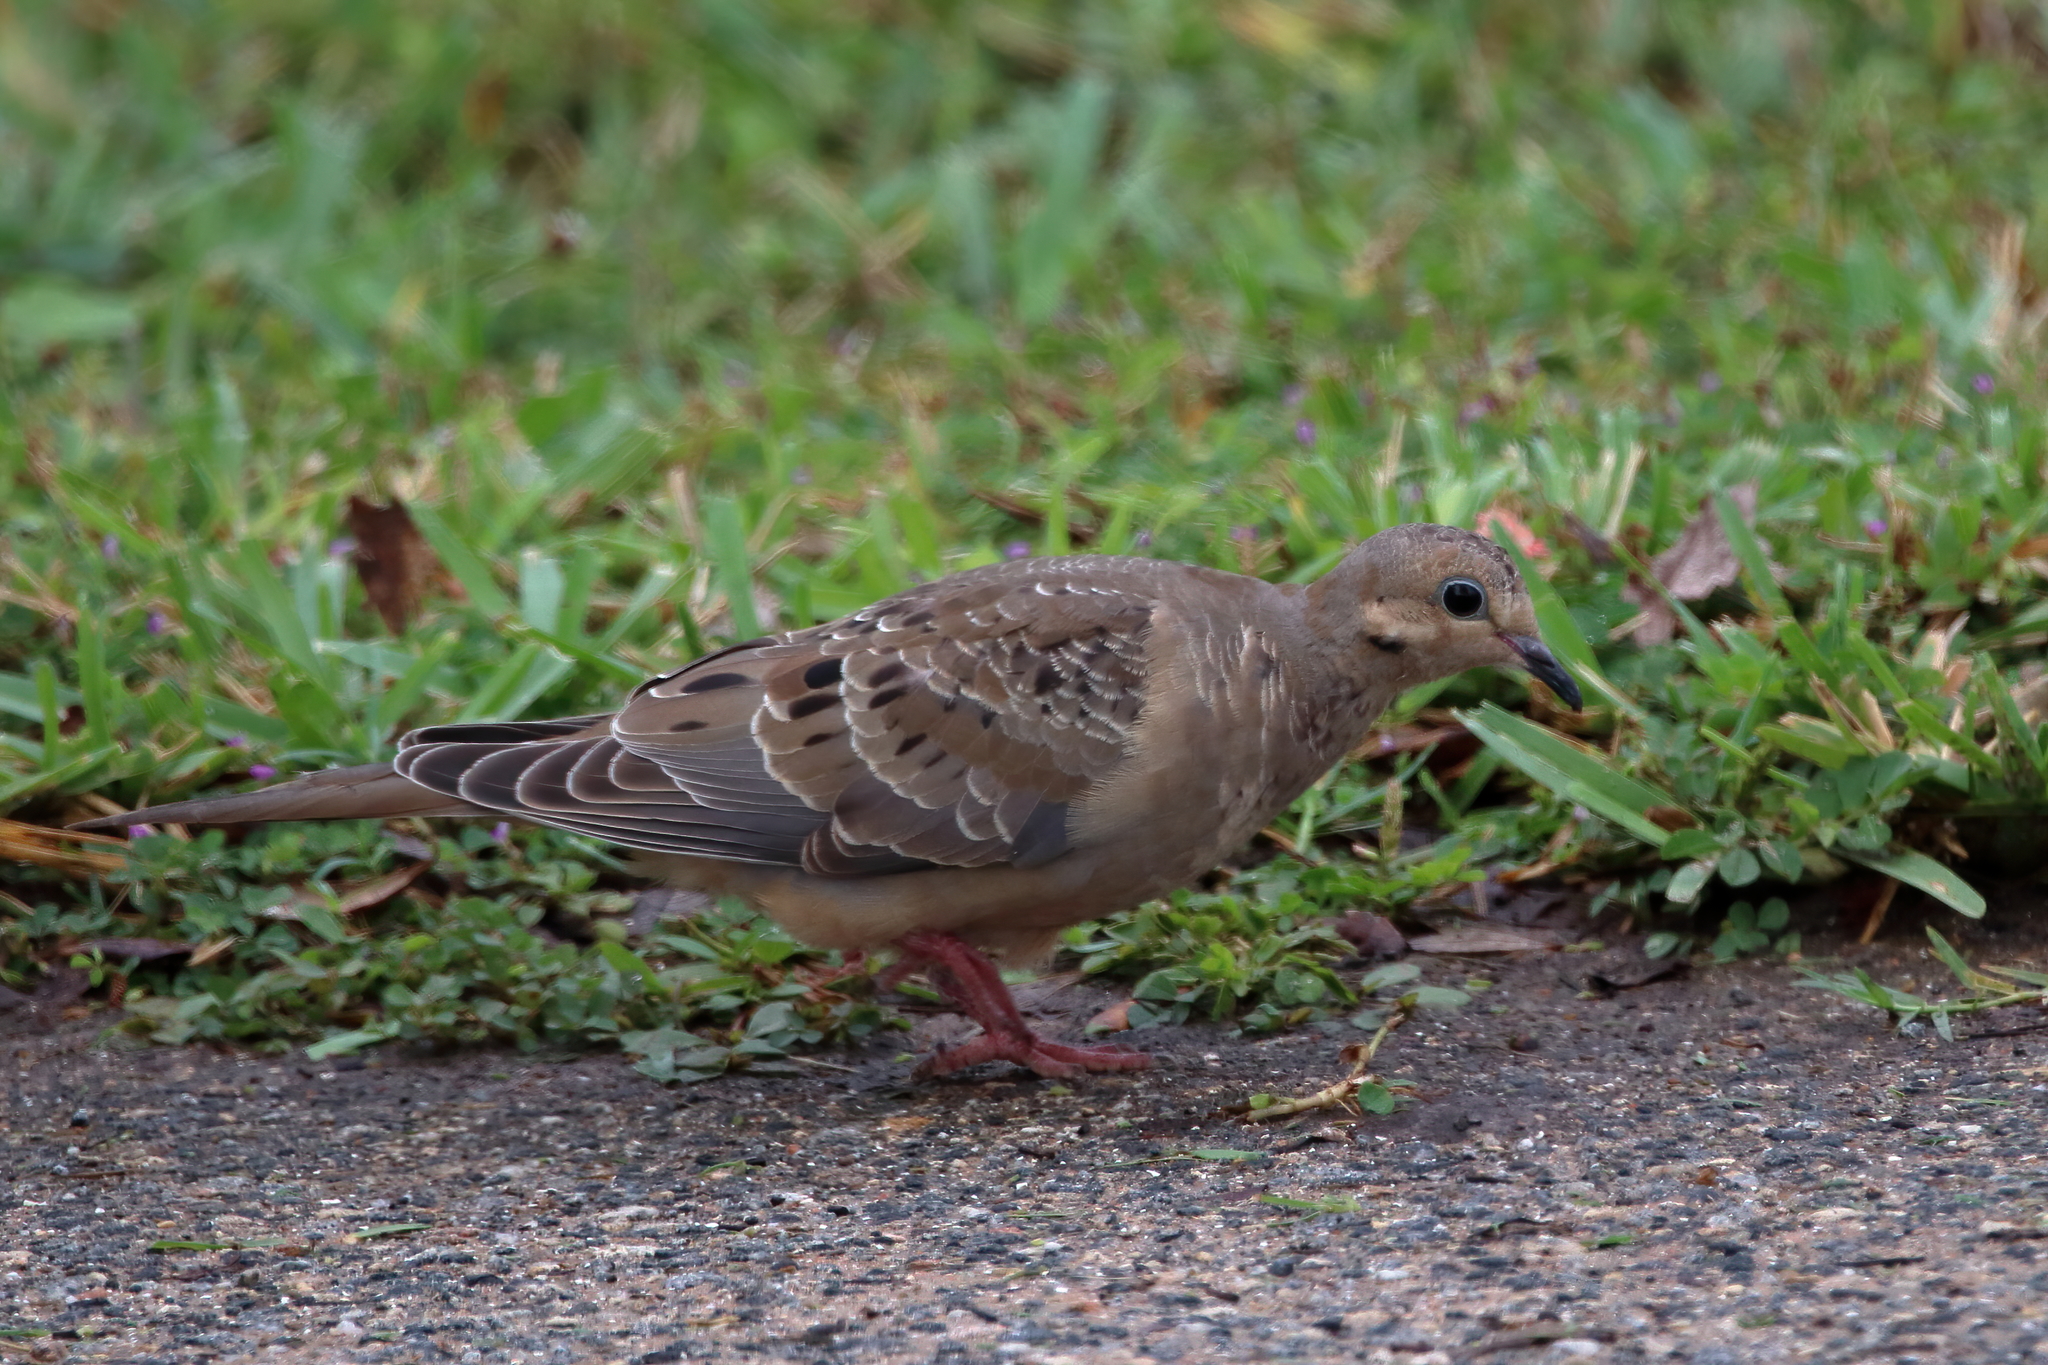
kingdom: Animalia
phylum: Chordata
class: Aves
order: Columbiformes
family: Columbidae
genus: Zenaida
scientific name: Zenaida macroura
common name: Mourning dove
